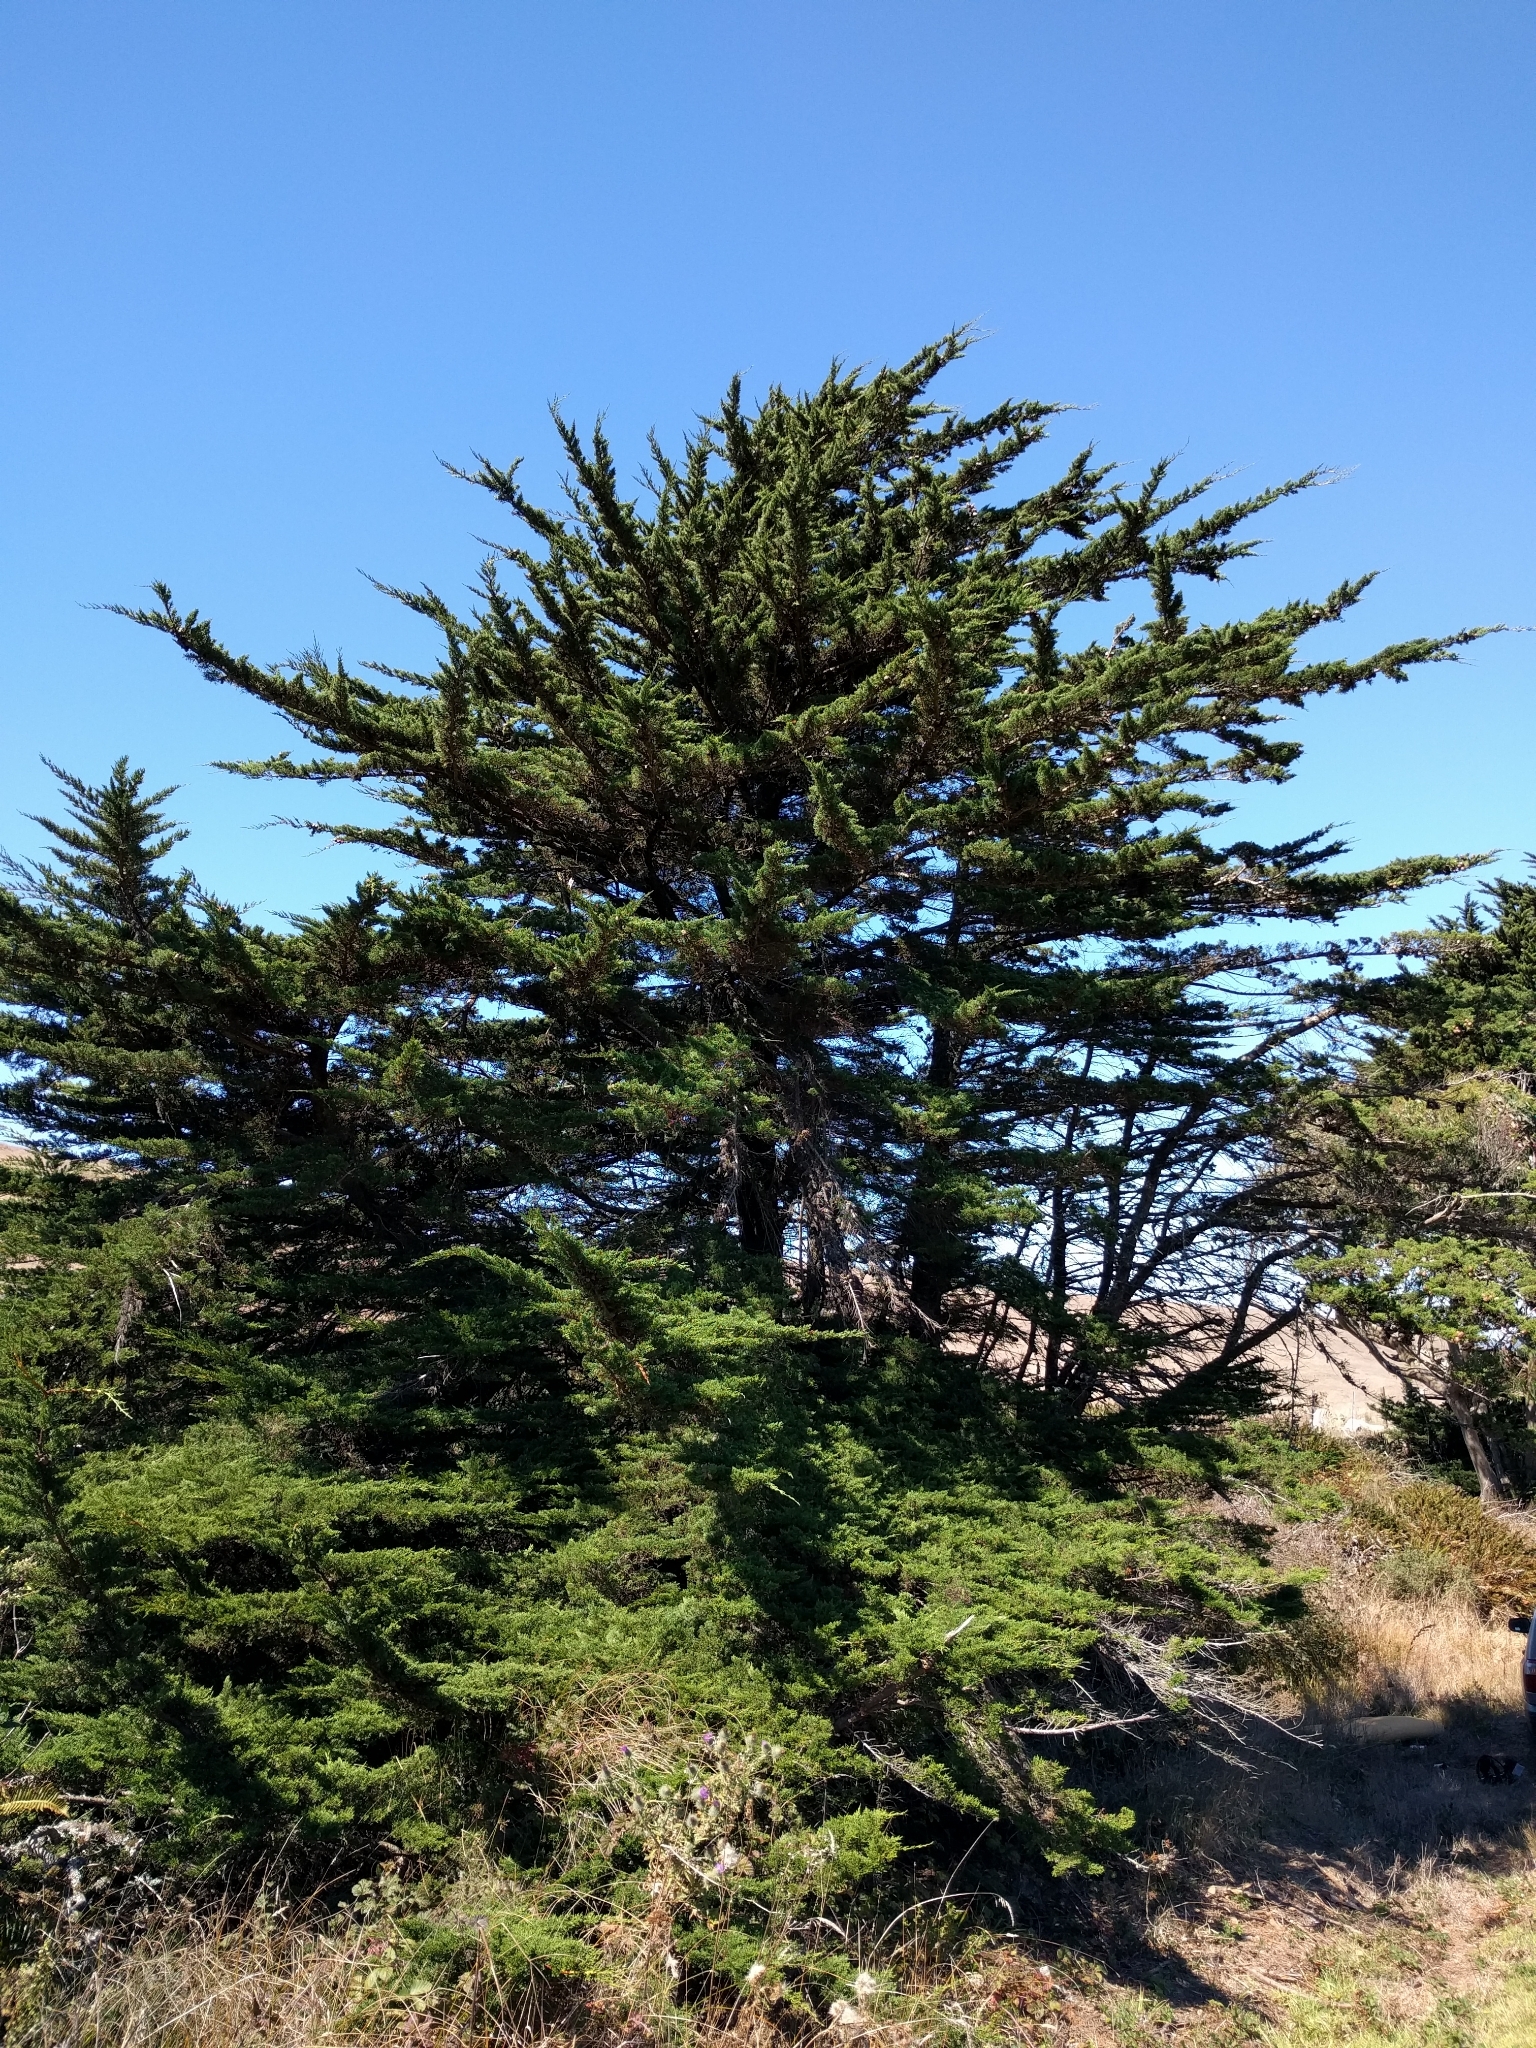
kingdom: Plantae
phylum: Tracheophyta
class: Pinopsida
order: Pinales
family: Cupressaceae
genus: Cupressus
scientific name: Cupressus macrocarpa
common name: Monterey cypress
